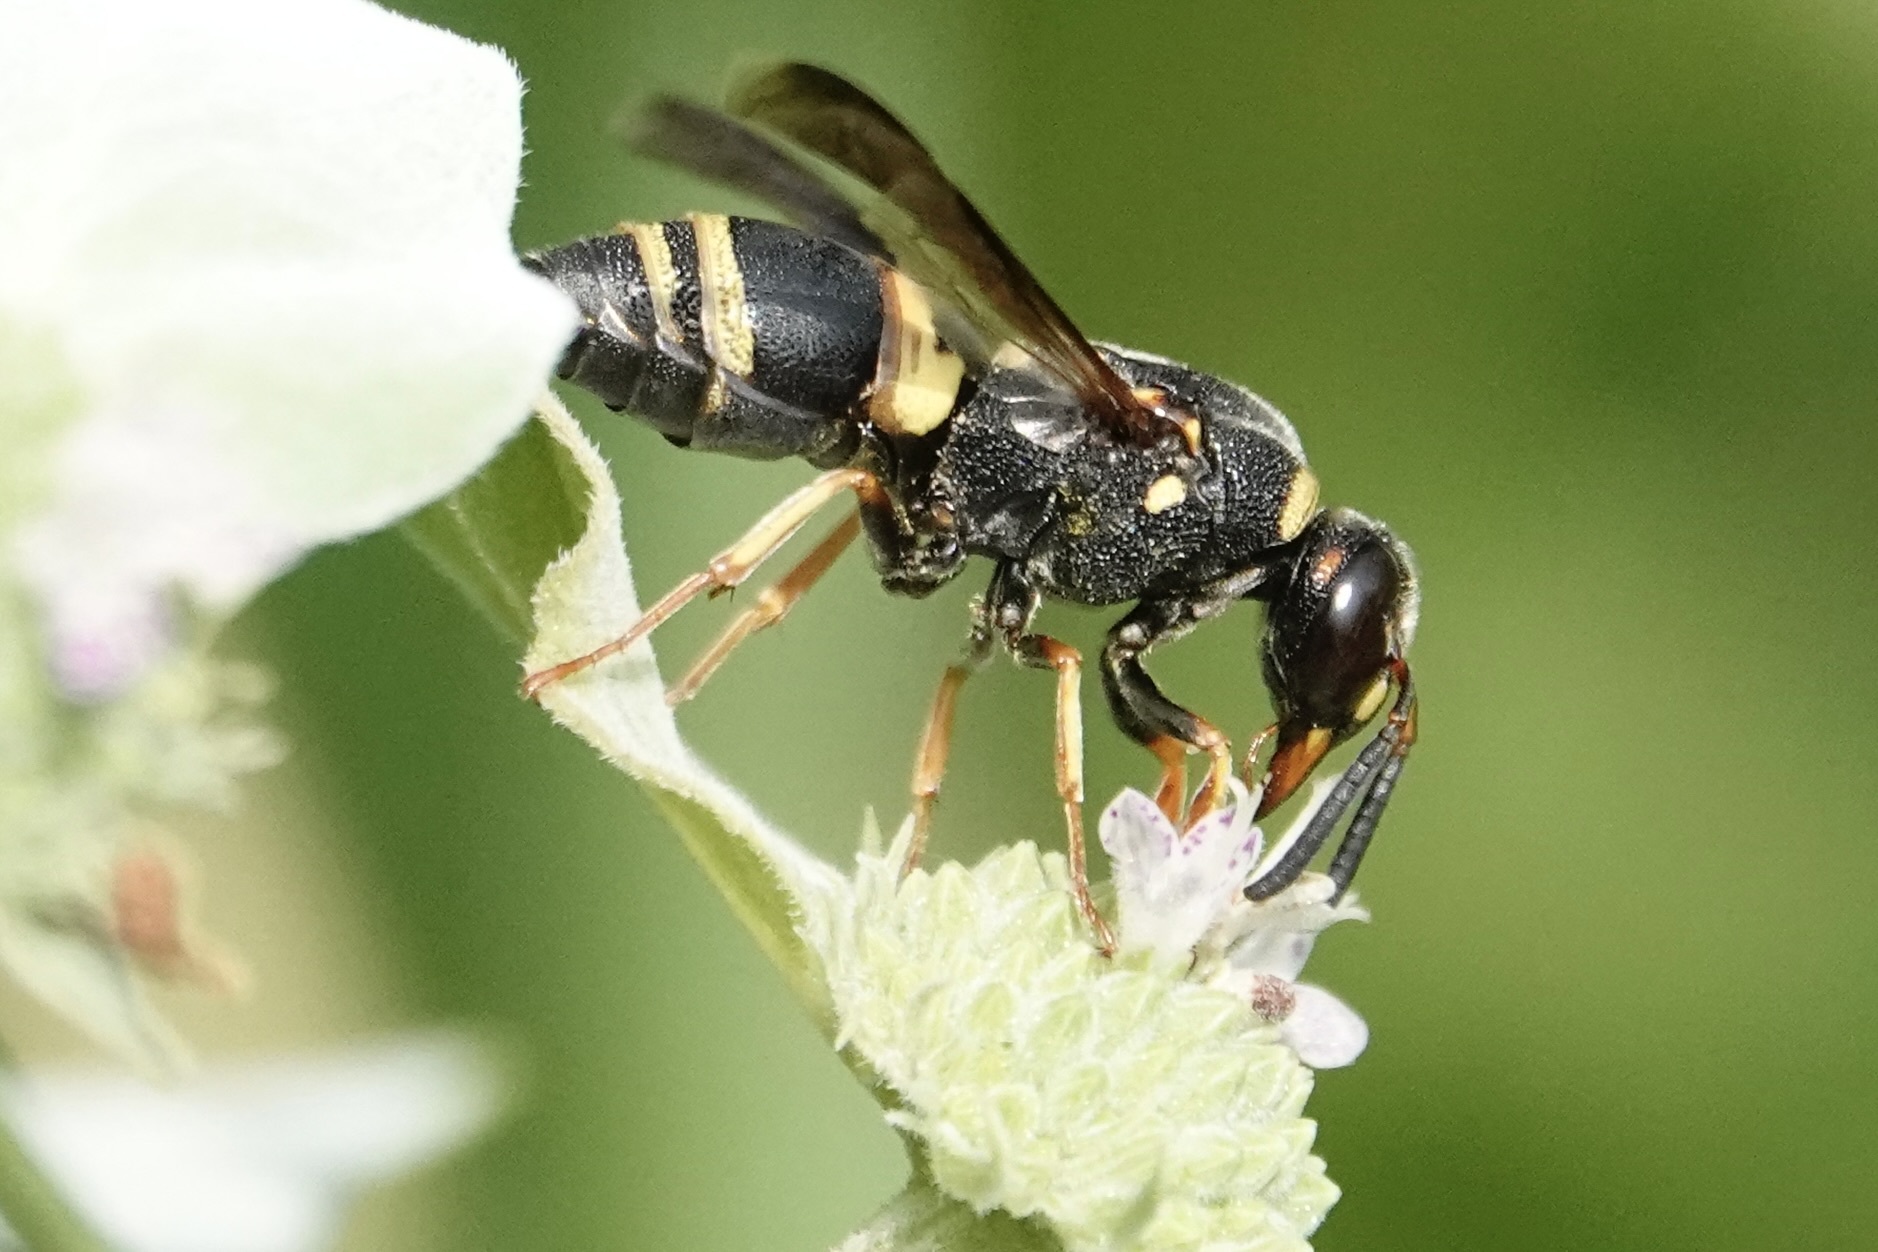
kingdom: Animalia
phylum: Arthropoda
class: Insecta
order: Hymenoptera
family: Eumenidae
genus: Euodynerus
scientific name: Euodynerus hidalgo
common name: Wasp
